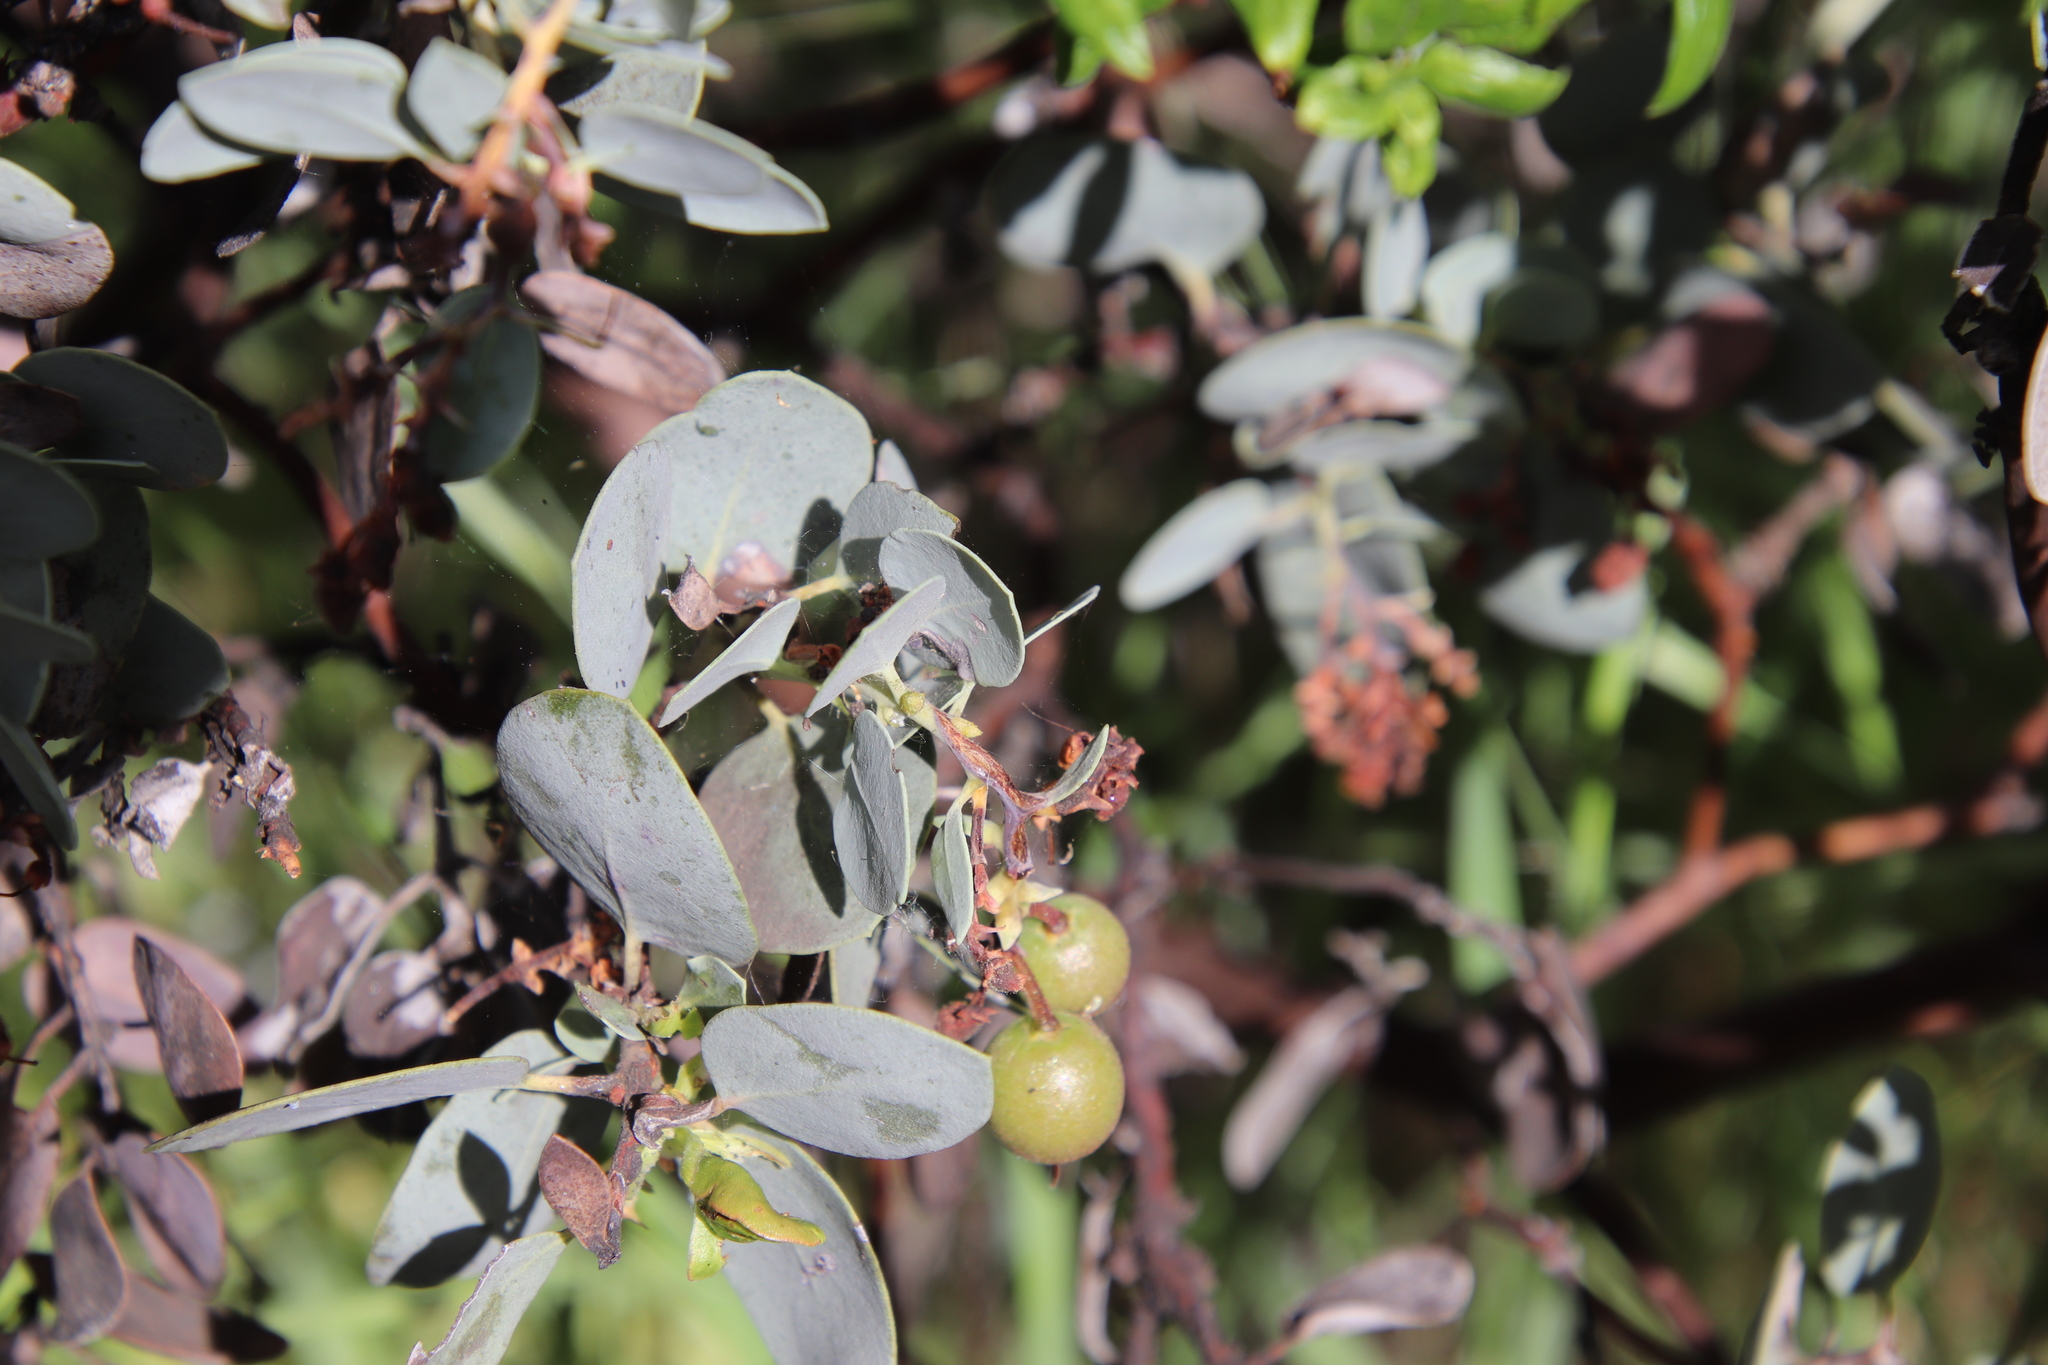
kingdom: Plantae
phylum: Tracheophyta
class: Magnoliopsida
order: Ericales
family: Ericaceae
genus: Arctostaphylos
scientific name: Arctostaphylos glauca
